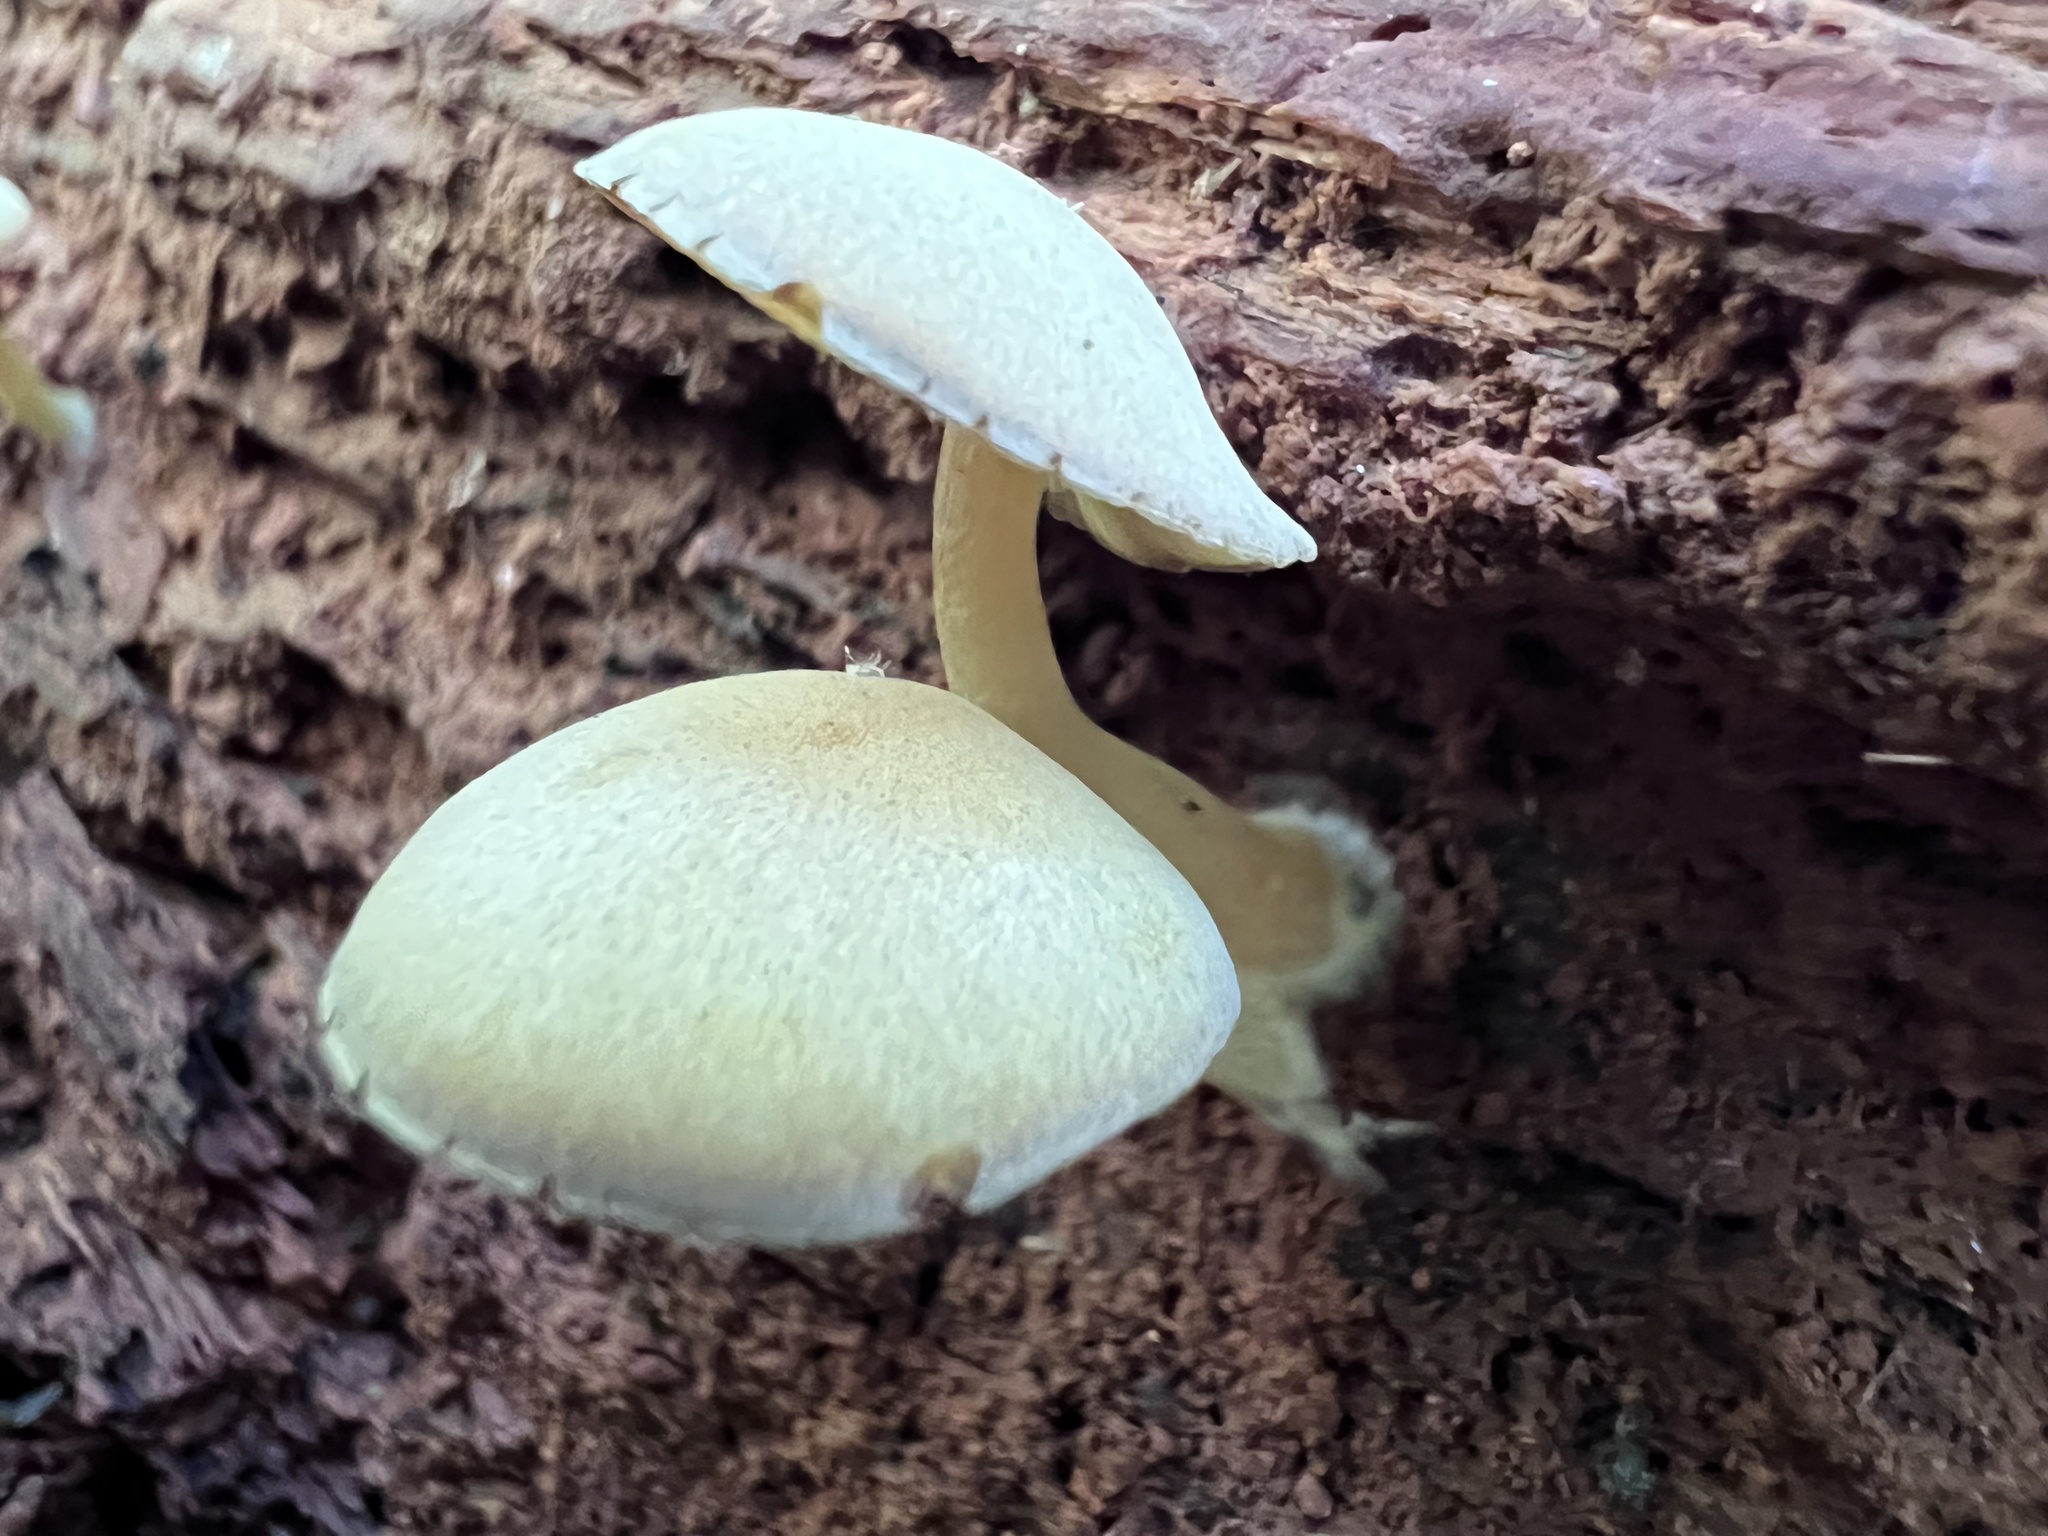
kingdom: Fungi
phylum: Basidiomycota
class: Agaricomycetes
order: Agaricales
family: Callistosporiaceae
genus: Callistosporium
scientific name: Callistosporium purpureomarginatum
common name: Purple-edged lute
